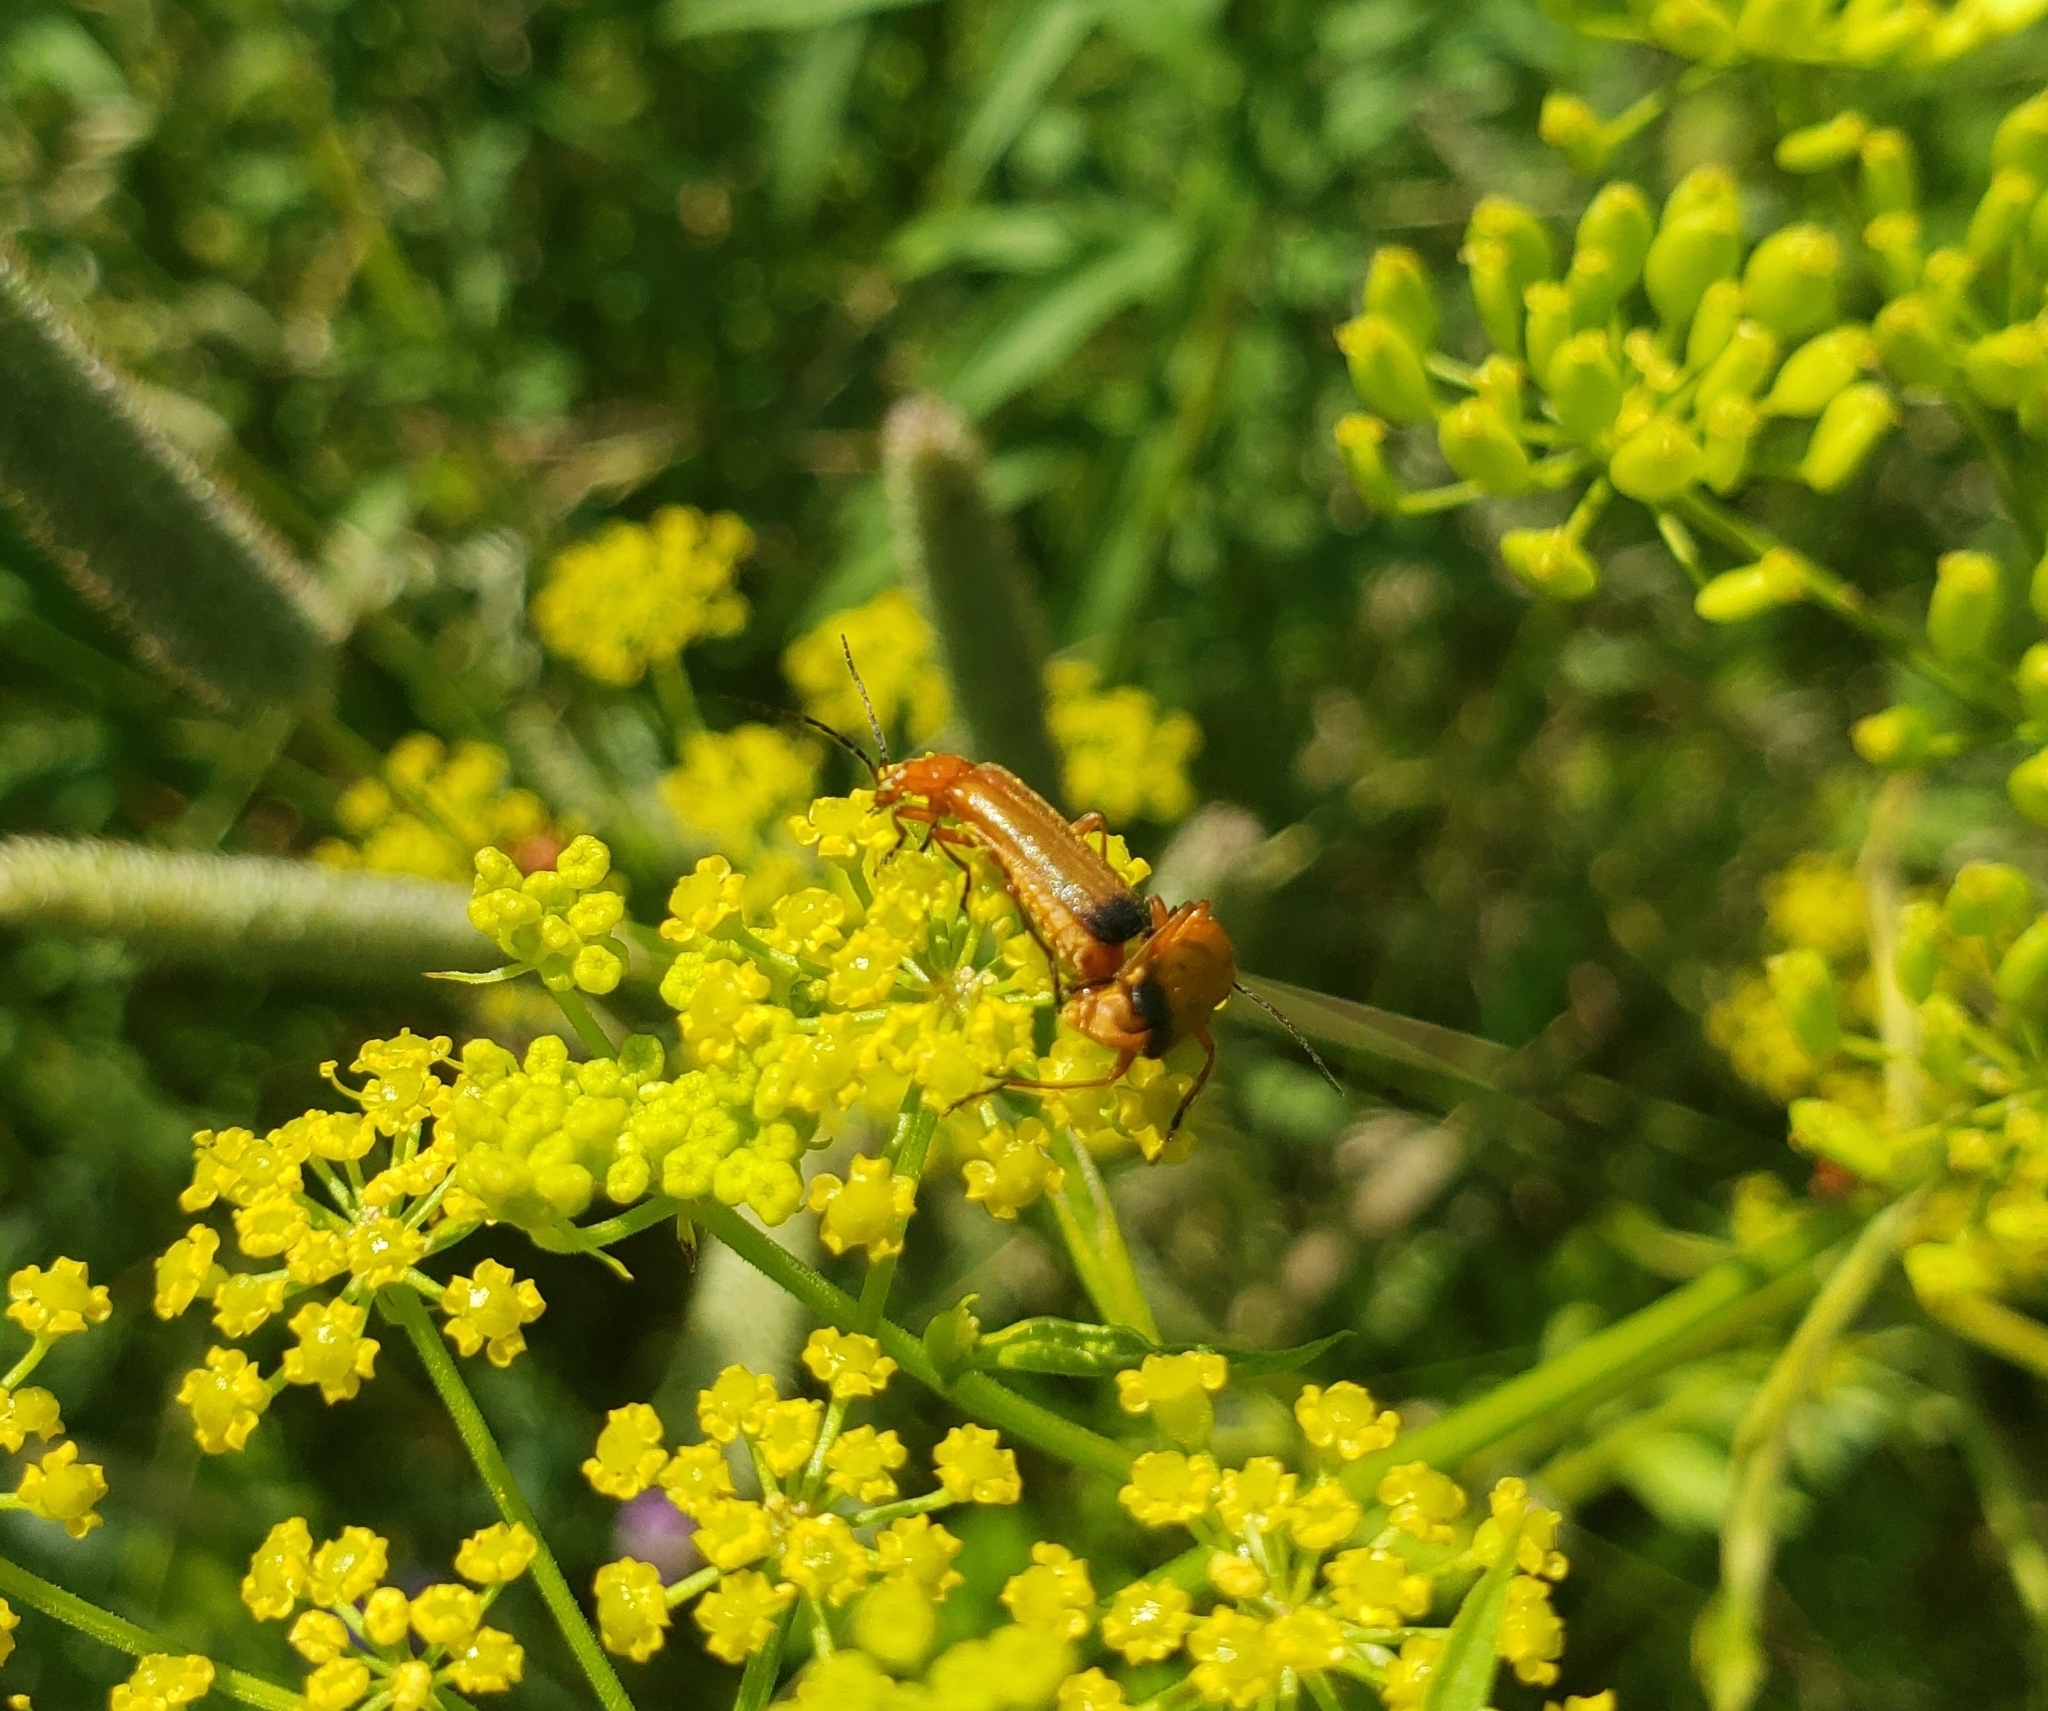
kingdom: Animalia
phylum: Arthropoda
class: Insecta
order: Coleoptera
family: Cantharidae
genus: Rhagonycha
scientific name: Rhagonycha fulva
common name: Common red soldier beetle
